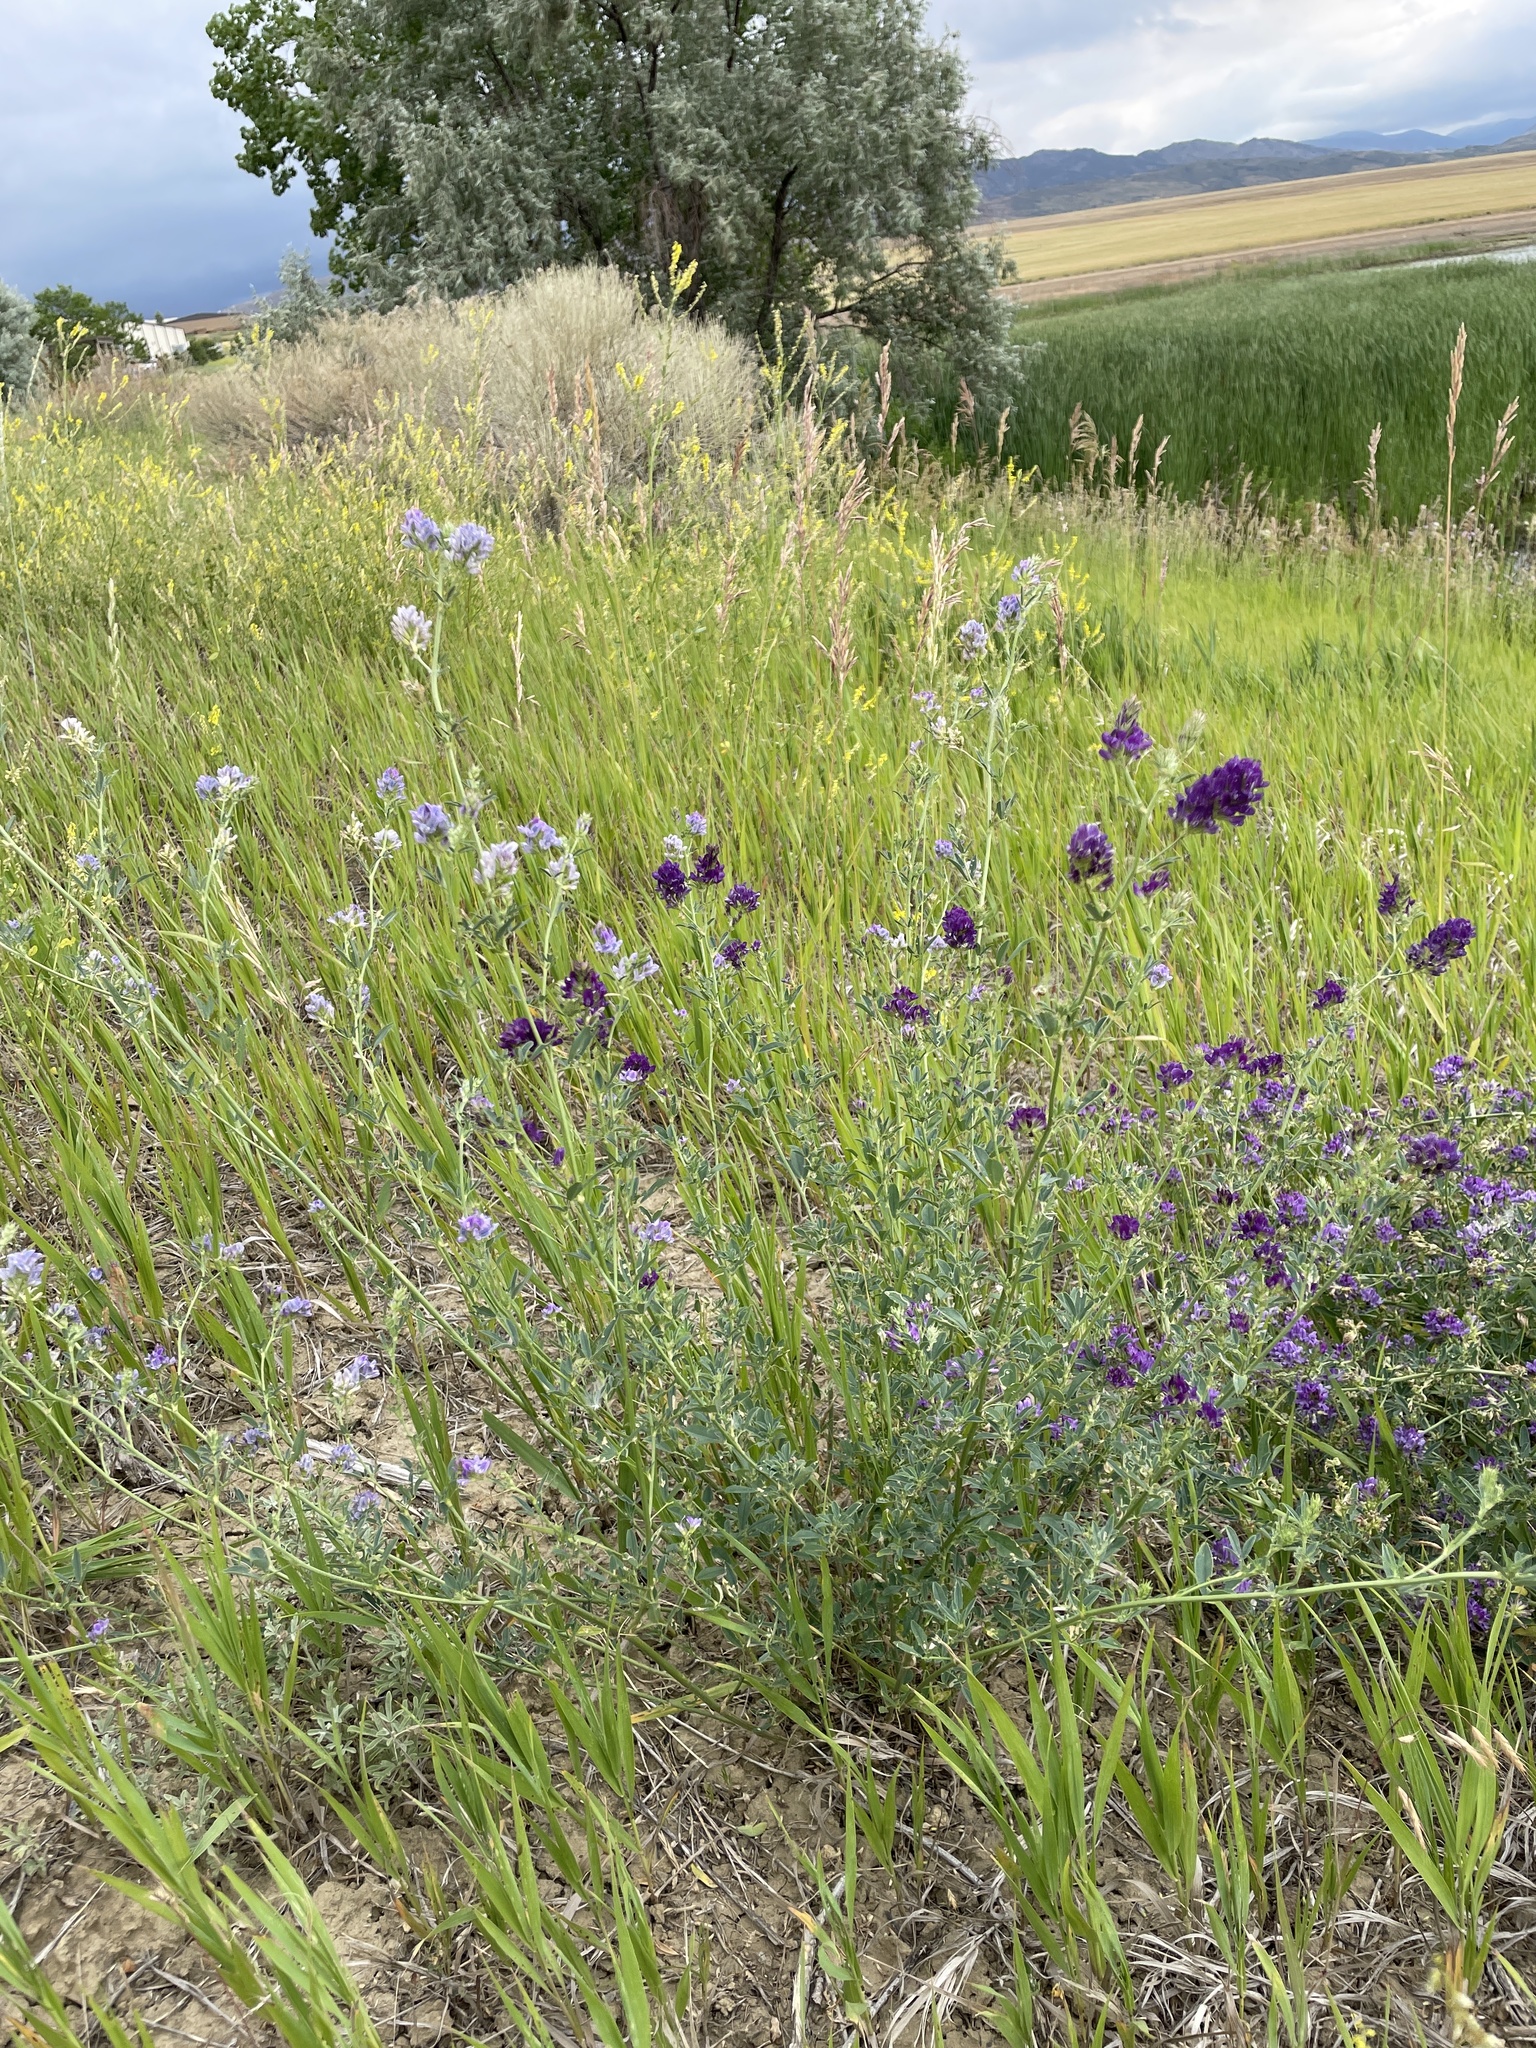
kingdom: Plantae
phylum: Tracheophyta
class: Magnoliopsida
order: Fabales
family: Fabaceae
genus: Medicago
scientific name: Medicago sativa
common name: Alfalfa
